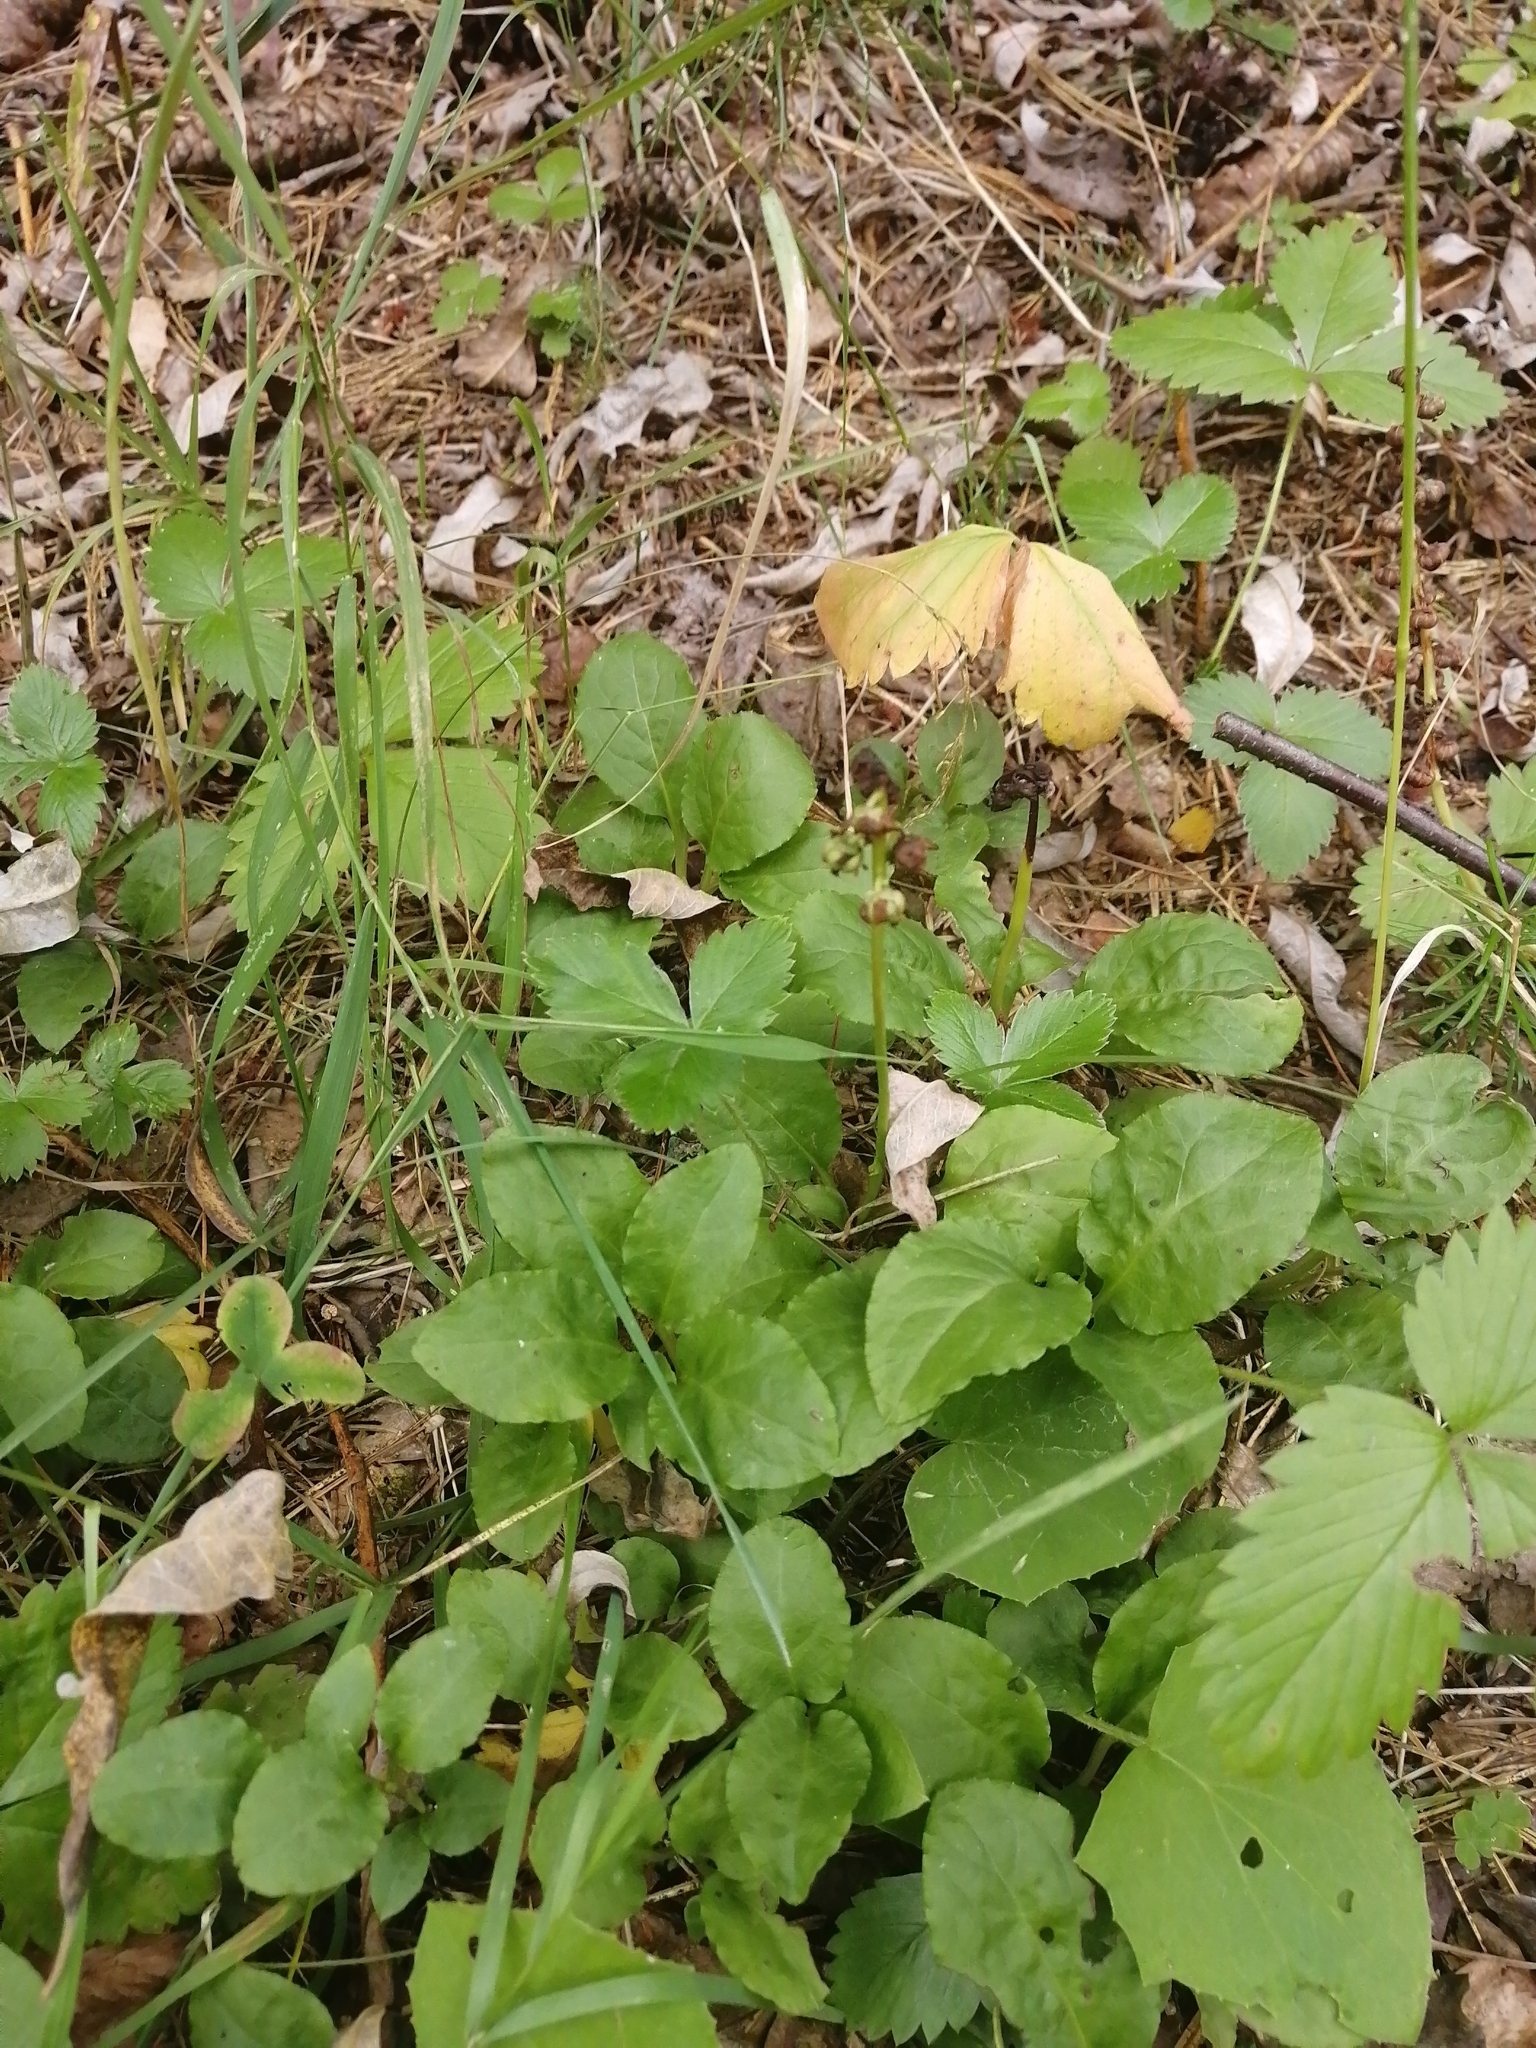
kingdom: Plantae
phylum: Tracheophyta
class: Magnoliopsida
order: Ericales
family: Ericaceae
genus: Orthilia
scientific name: Orthilia secunda
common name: One-sided orthilia
